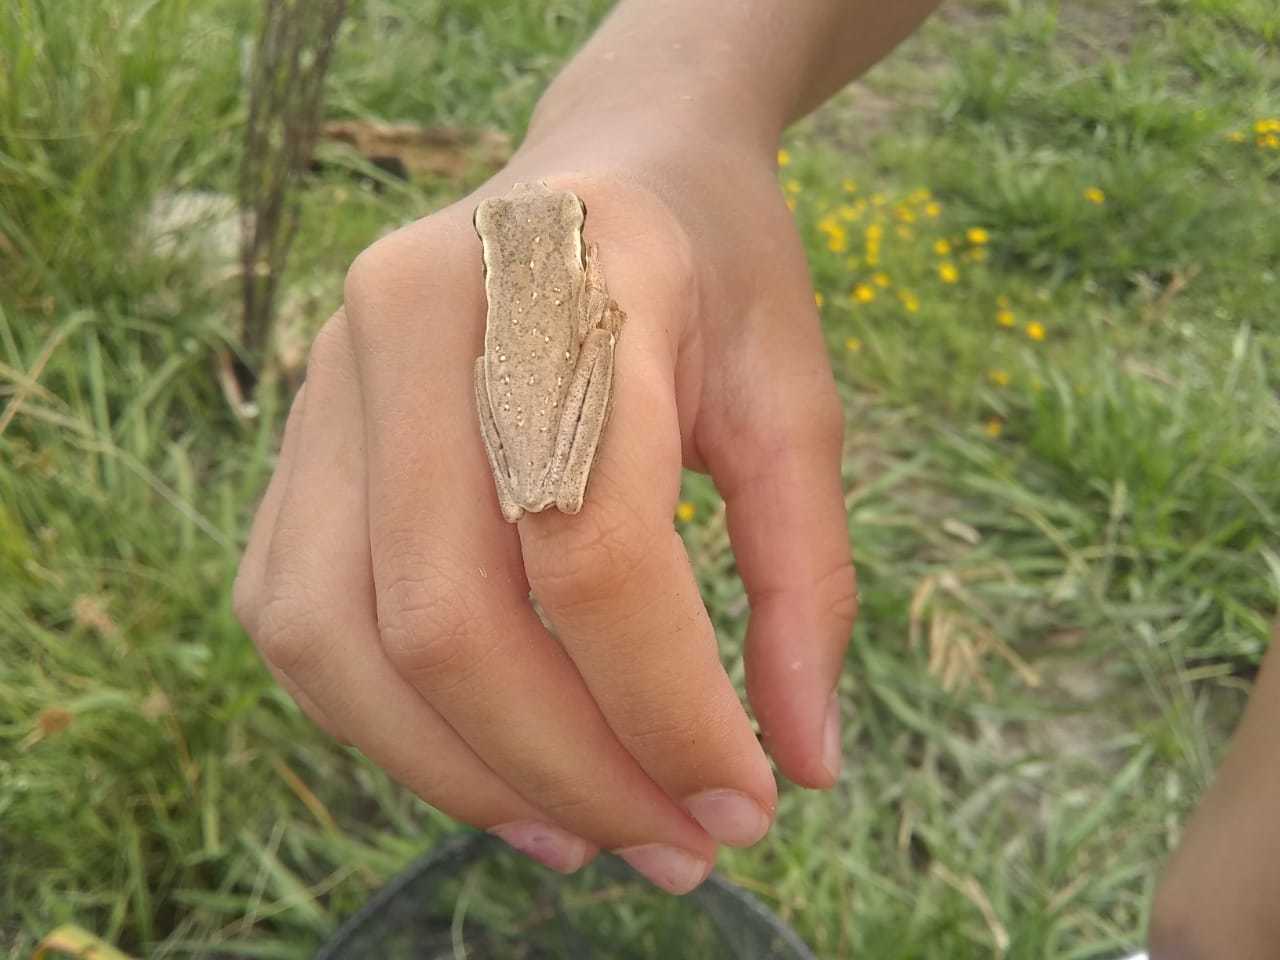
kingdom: Animalia
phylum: Chordata
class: Amphibia
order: Anura
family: Hylidae
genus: Boana
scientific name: Boana pulchella
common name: Montevideo treefrog
